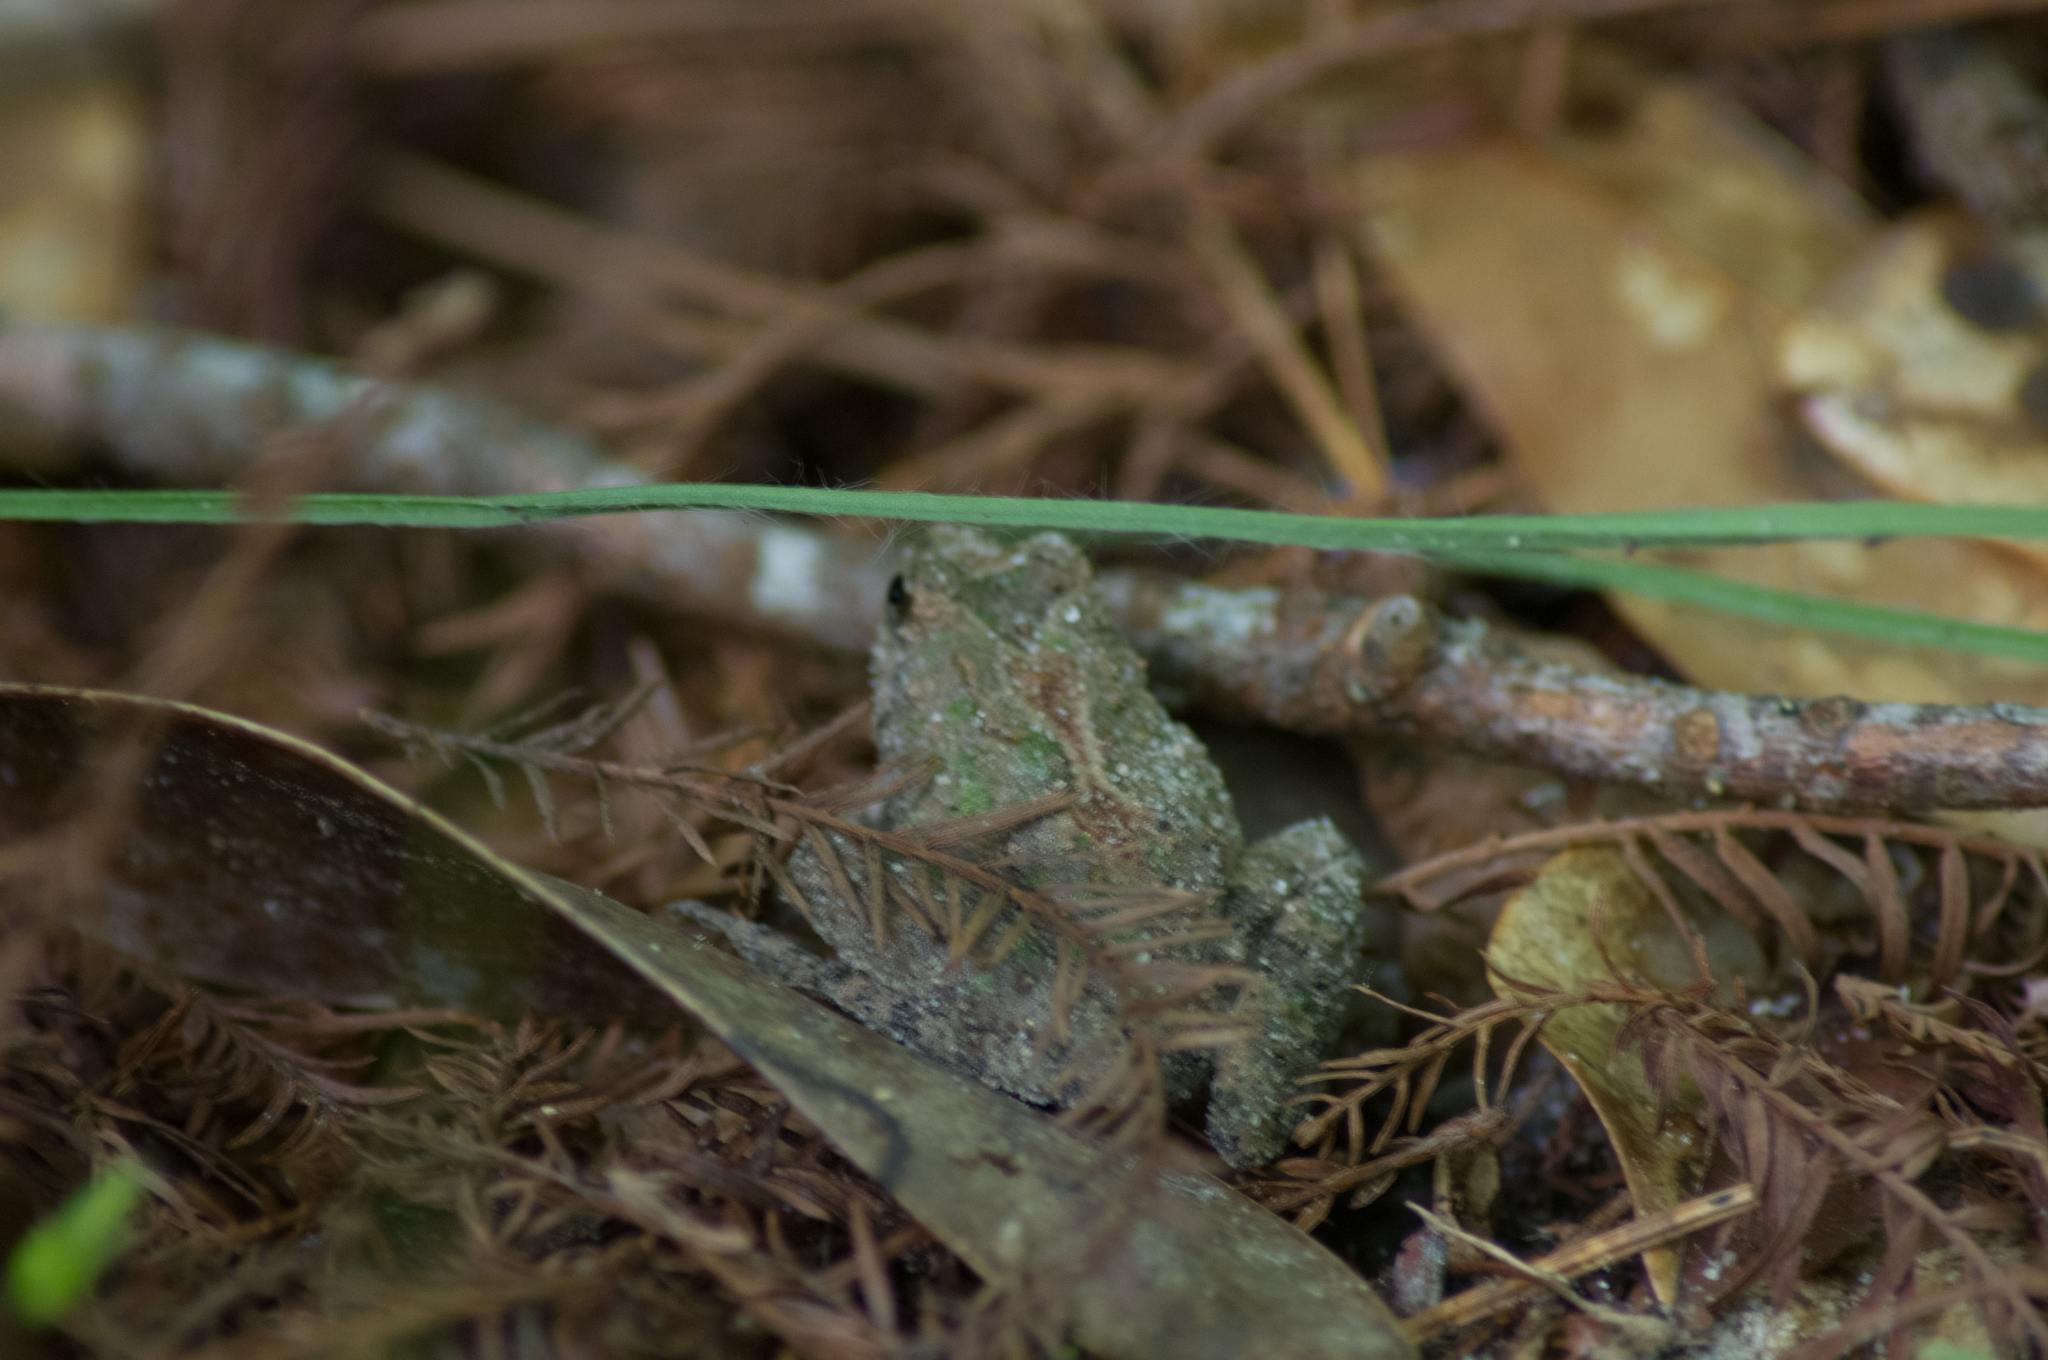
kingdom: Animalia
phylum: Chordata
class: Amphibia
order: Anura
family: Hylidae
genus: Acris
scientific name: Acris blanchardi
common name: Blanchard's cricket frog
